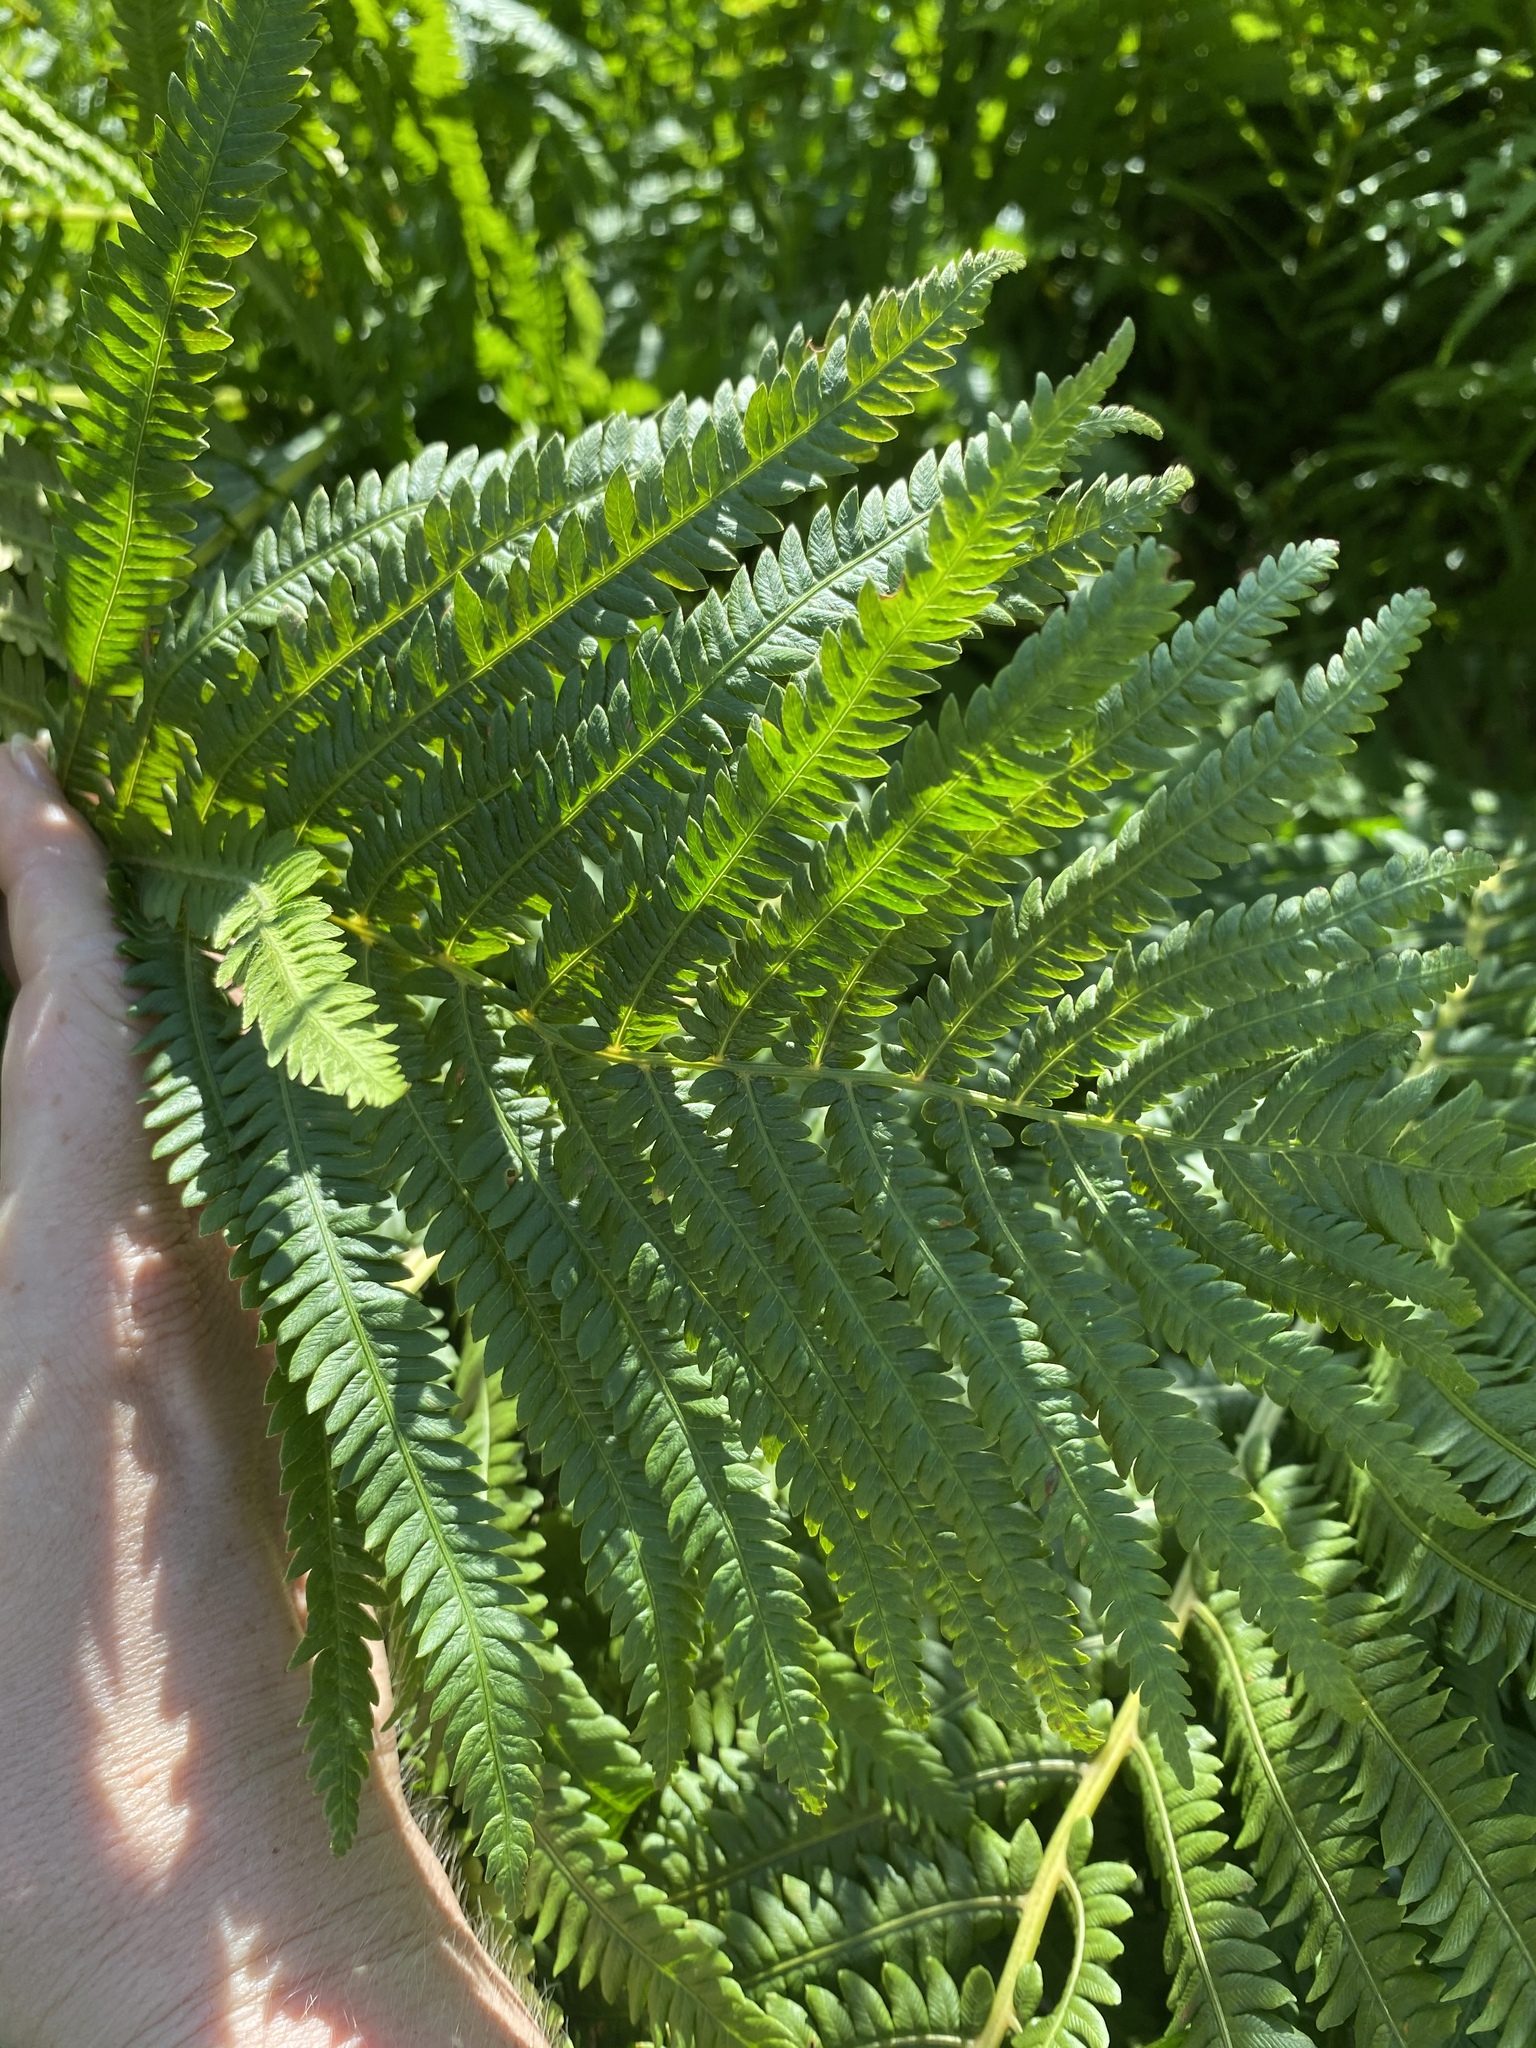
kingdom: Plantae
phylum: Tracheophyta
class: Polypodiopsida
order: Polypodiales
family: Onocleaceae
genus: Matteuccia
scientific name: Matteuccia struthiopteris
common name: Ostrich fern
